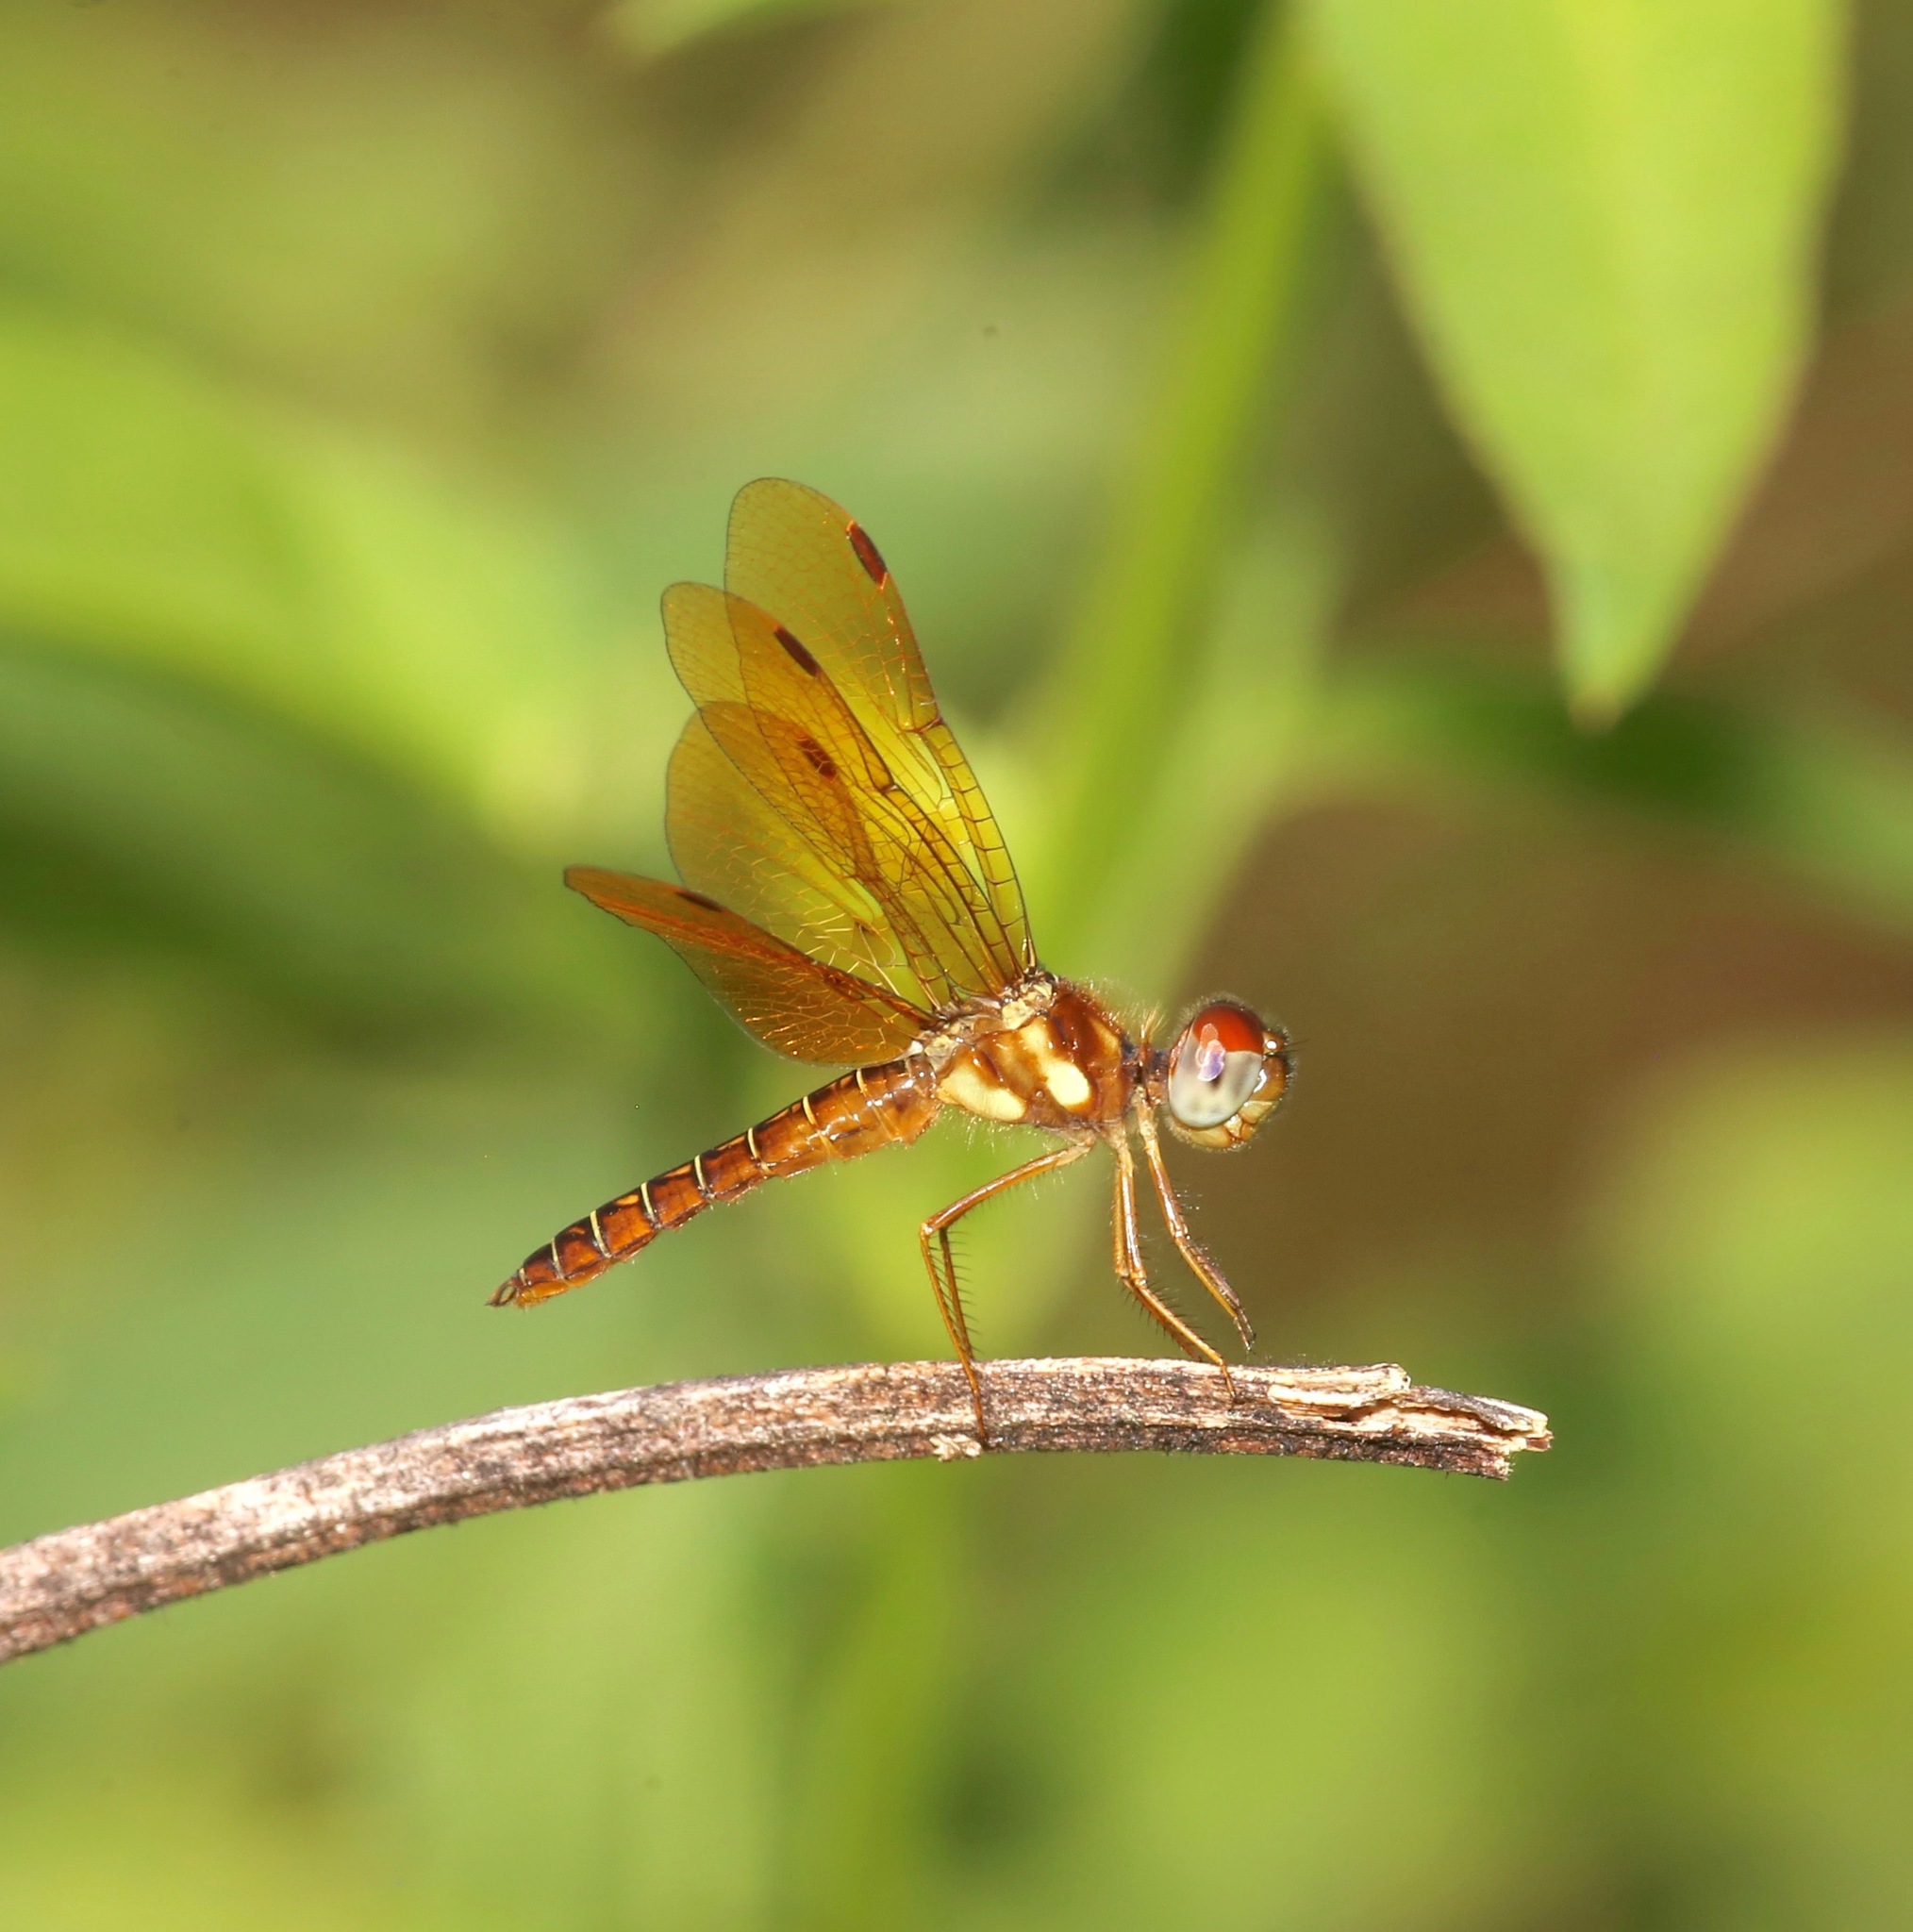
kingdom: Animalia
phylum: Arthropoda
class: Insecta
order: Odonata
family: Libellulidae
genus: Perithemis
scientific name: Perithemis tenera
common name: Eastern amberwing
